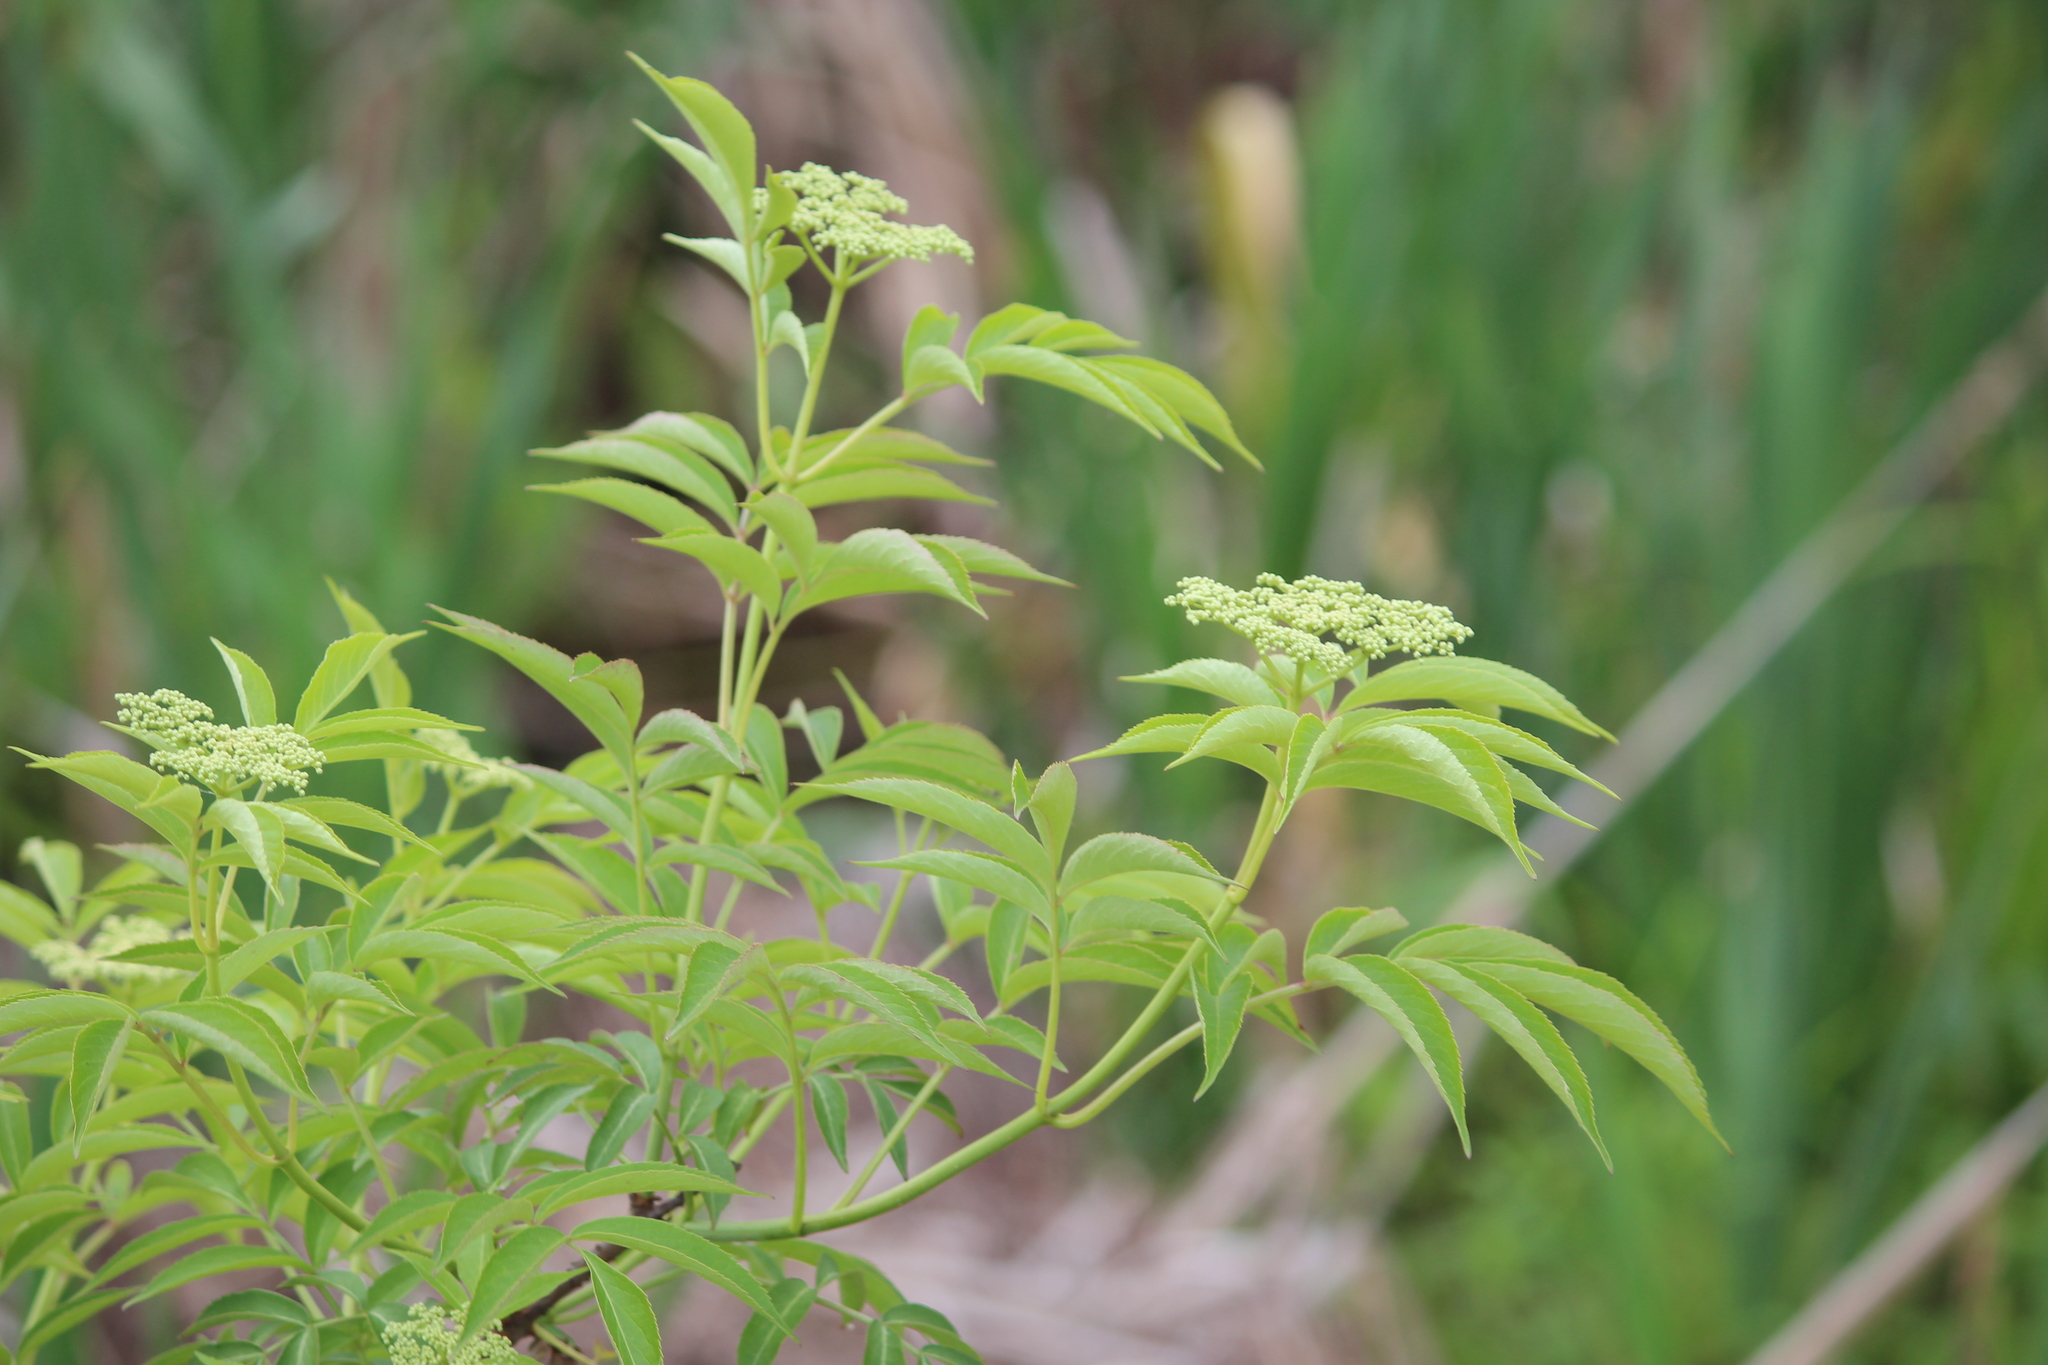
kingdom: Plantae
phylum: Tracheophyta
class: Magnoliopsida
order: Dipsacales
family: Viburnaceae
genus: Sambucus
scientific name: Sambucus canadensis
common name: American elder
